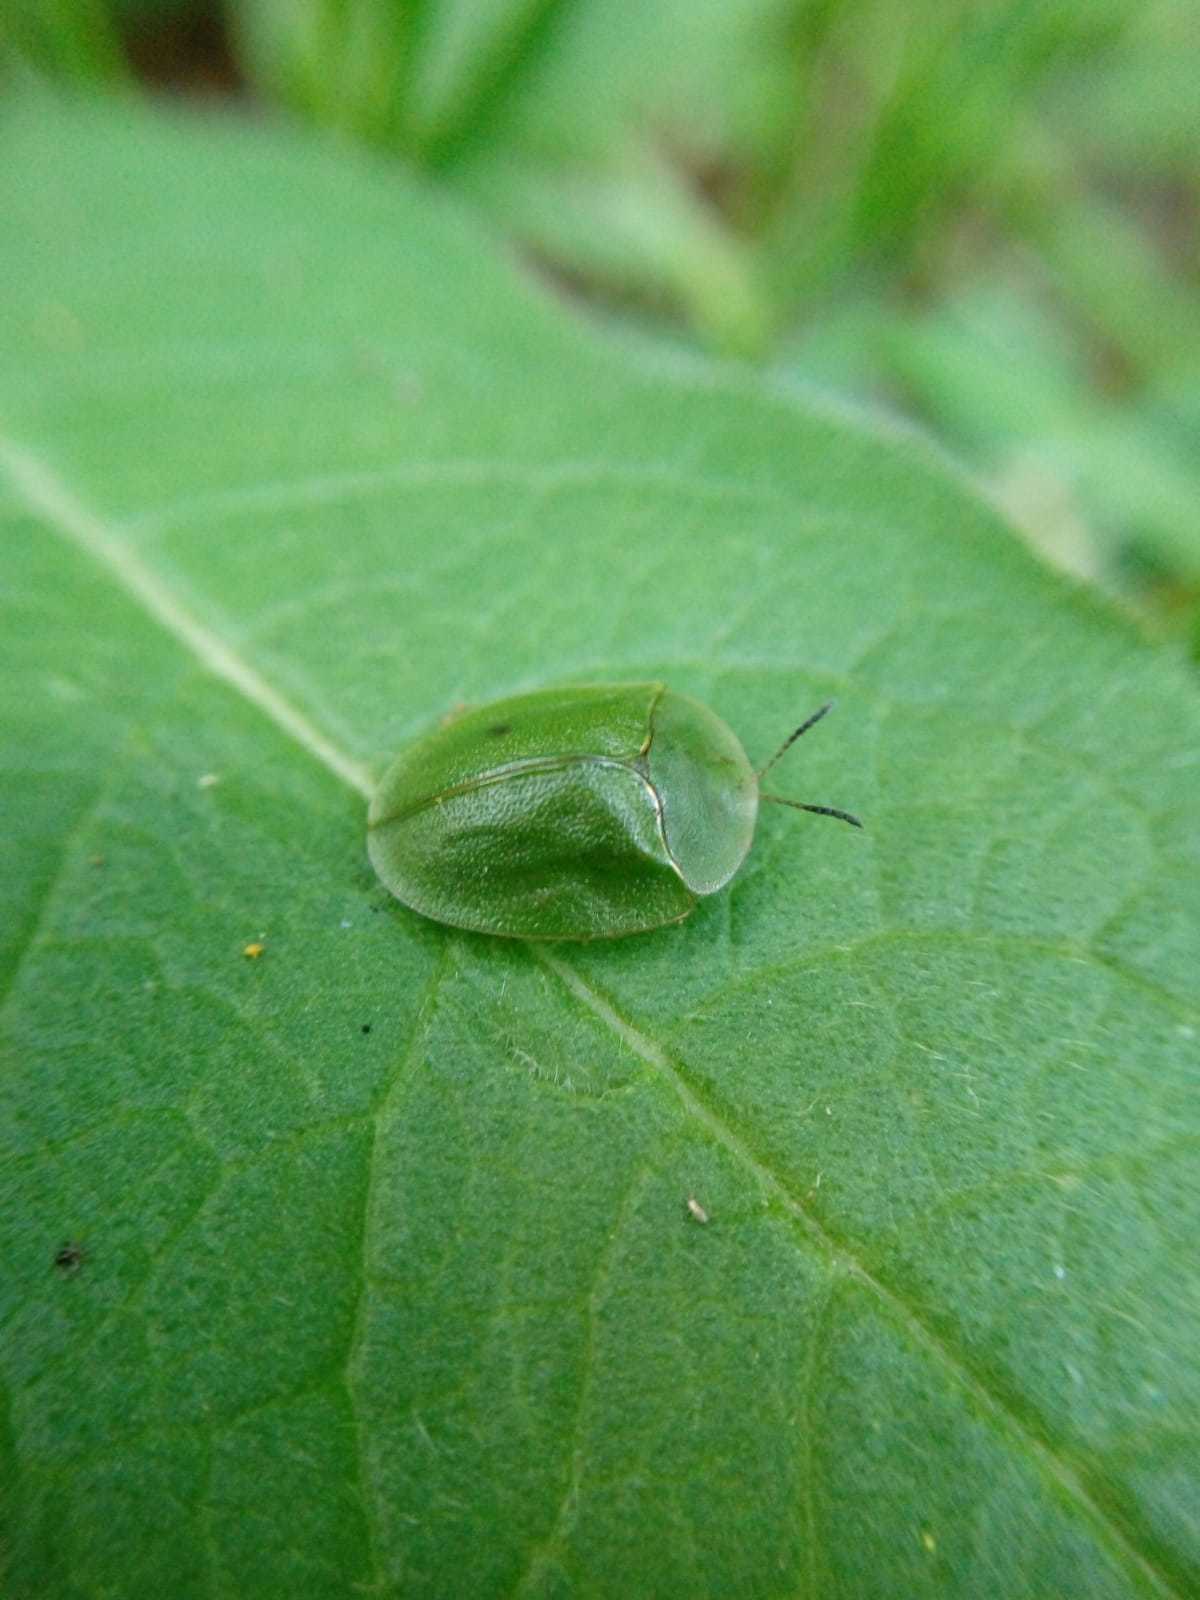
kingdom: Animalia
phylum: Arthropoda
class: Insecta
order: Coleoptera
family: Chrysomelidae
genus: Cassida
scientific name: Cassida viridis
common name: Green tortoise beetle
